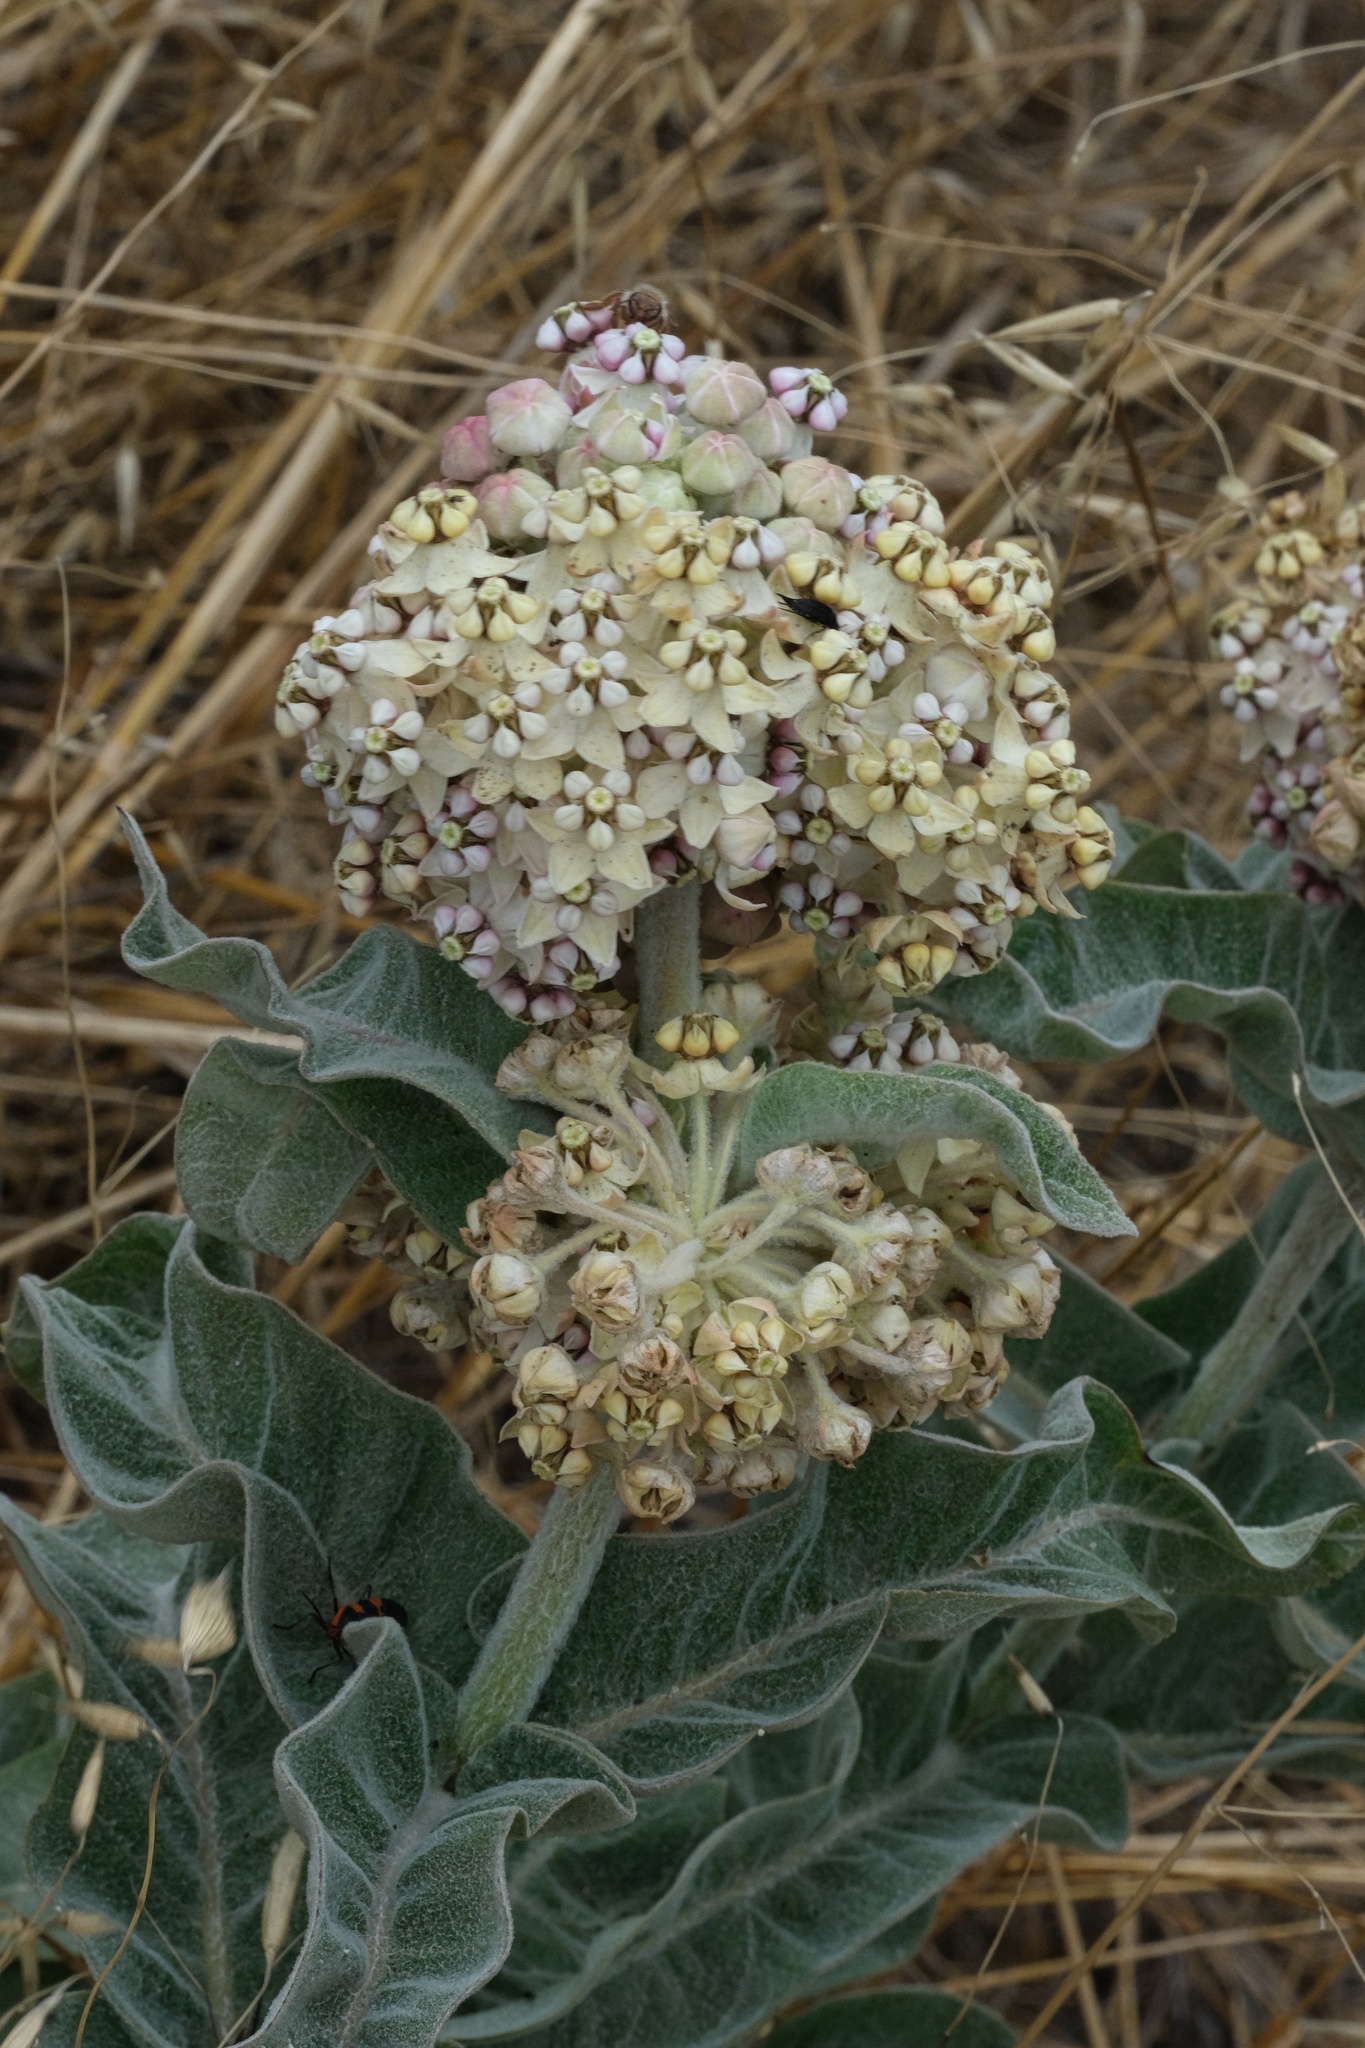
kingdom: Plantae
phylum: Tracheophyta
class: Magnoliopsida
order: Gentianales
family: Apocynaceae
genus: Asclepias
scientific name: Asclepias eriocarpa
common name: Indian milkweed
